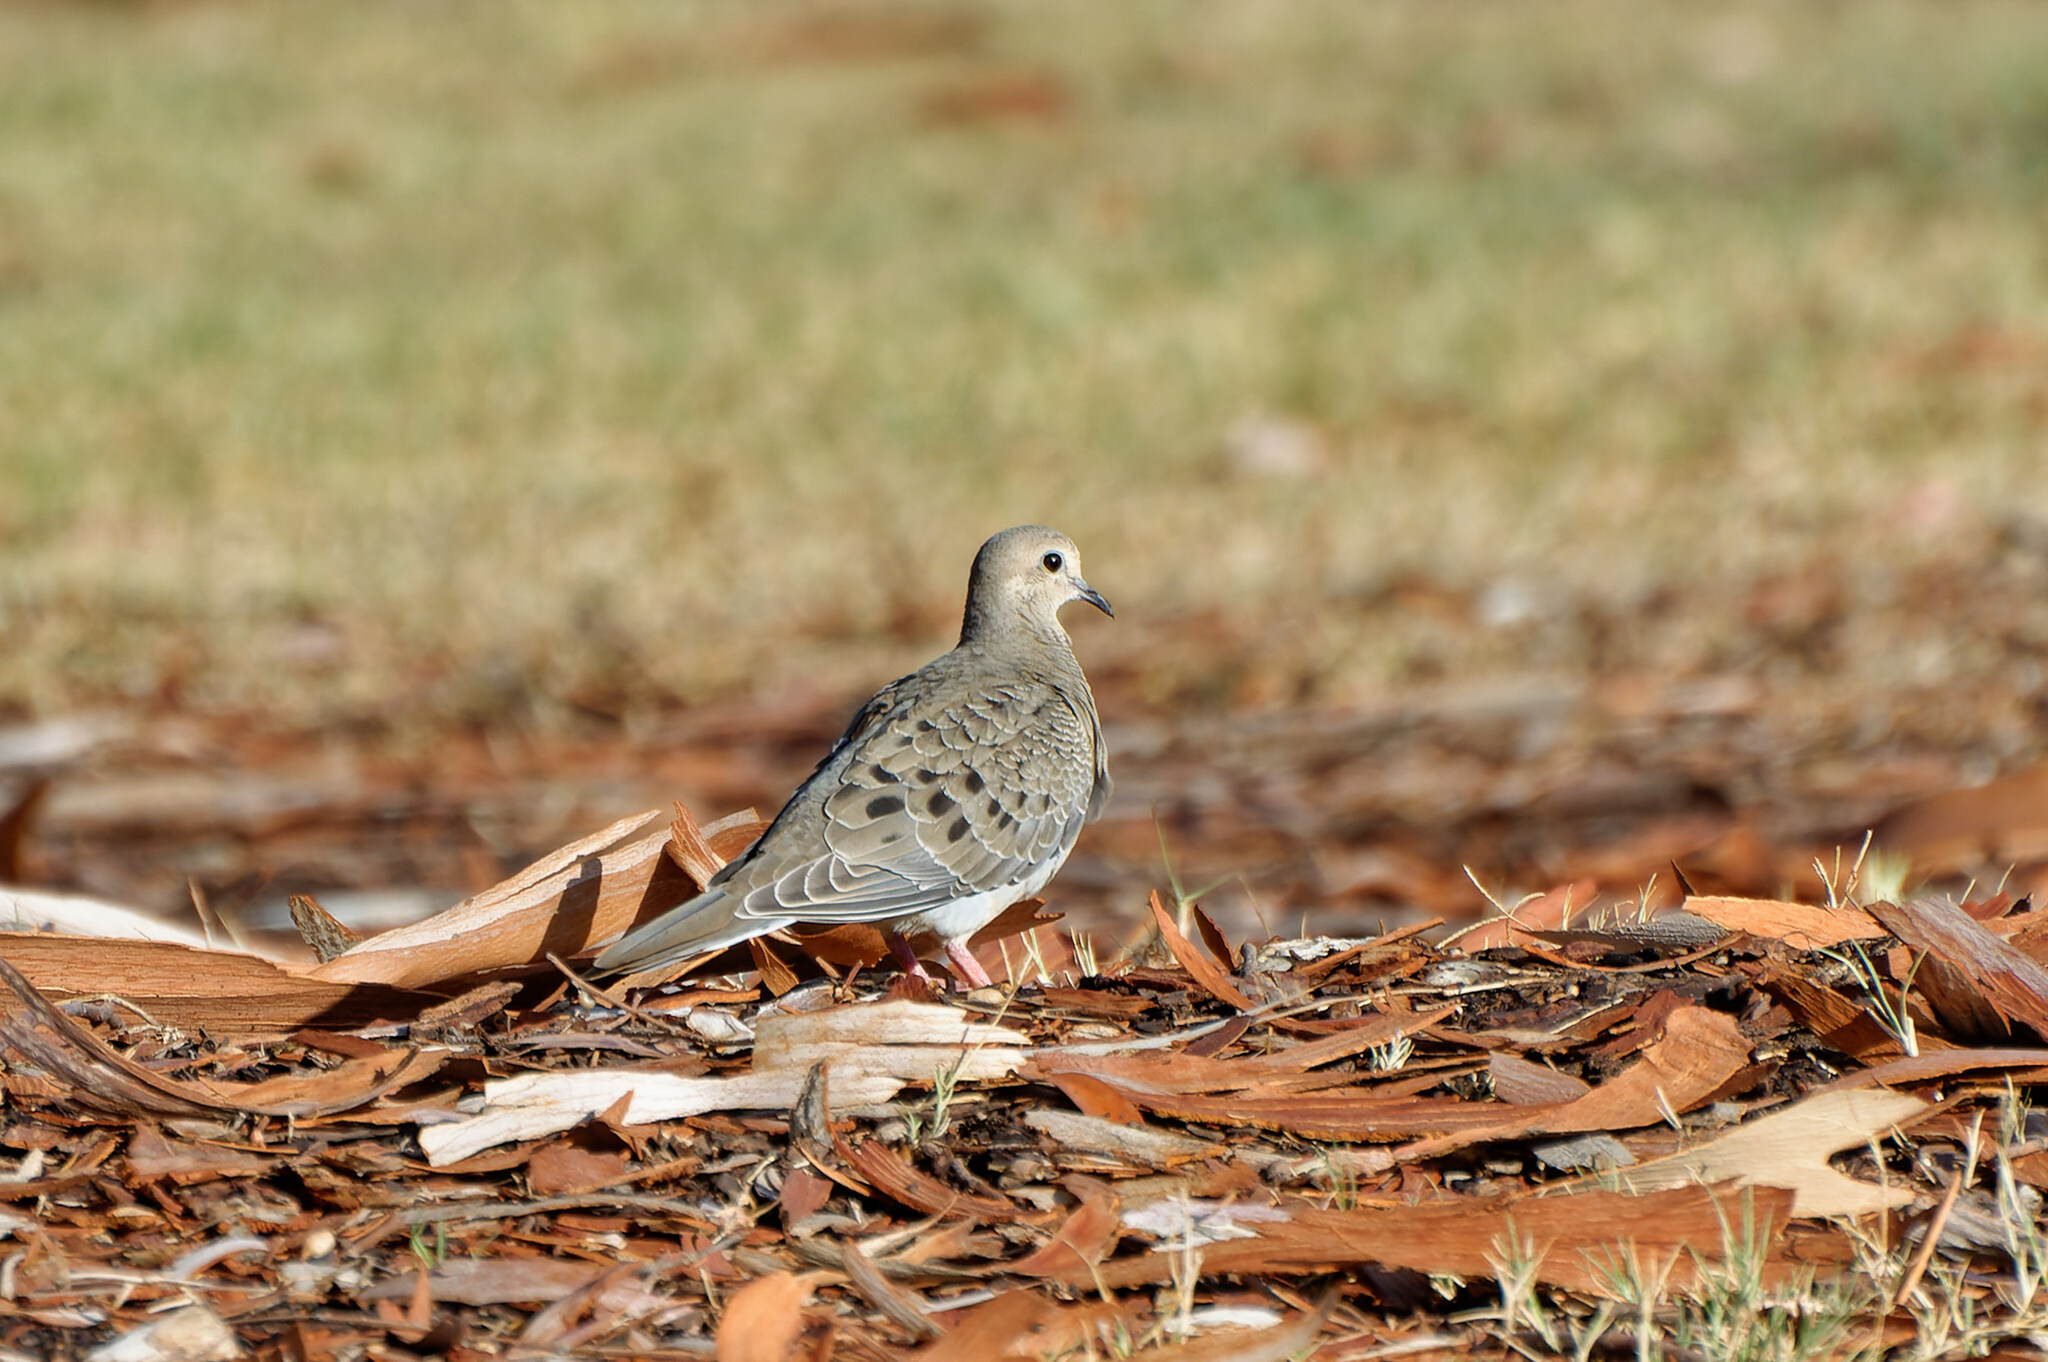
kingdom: Animalia
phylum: Chordata
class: Aves
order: Columbiformes
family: Columbidae
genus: Zenaida
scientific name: Zenaida macroura
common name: Mourning dove
